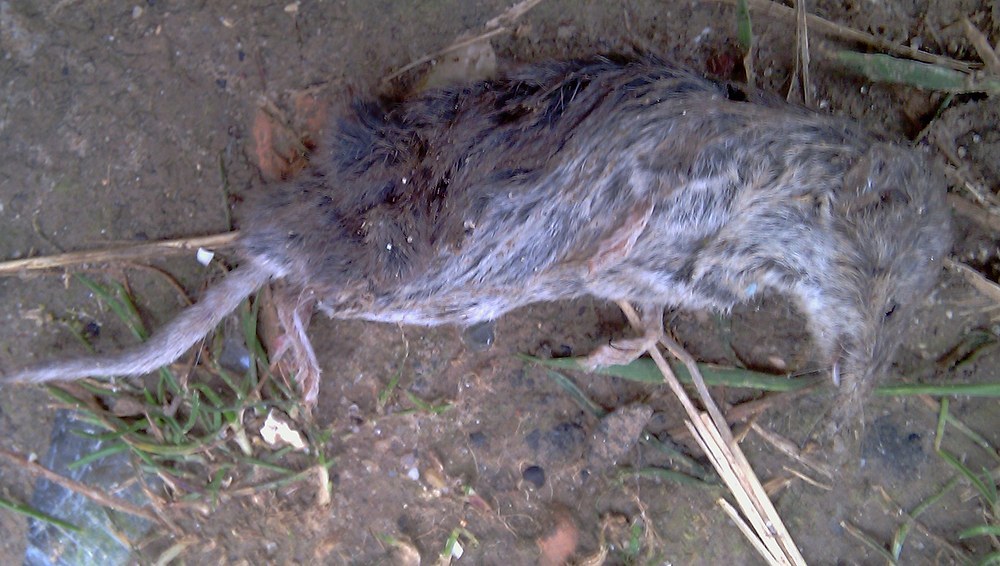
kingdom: Animalia
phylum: Chordata
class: Mammalia
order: Soricomorpha
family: Soricidae
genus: Crocidura
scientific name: Crocidura suaveolens
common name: Lesser white-toothed shrew
